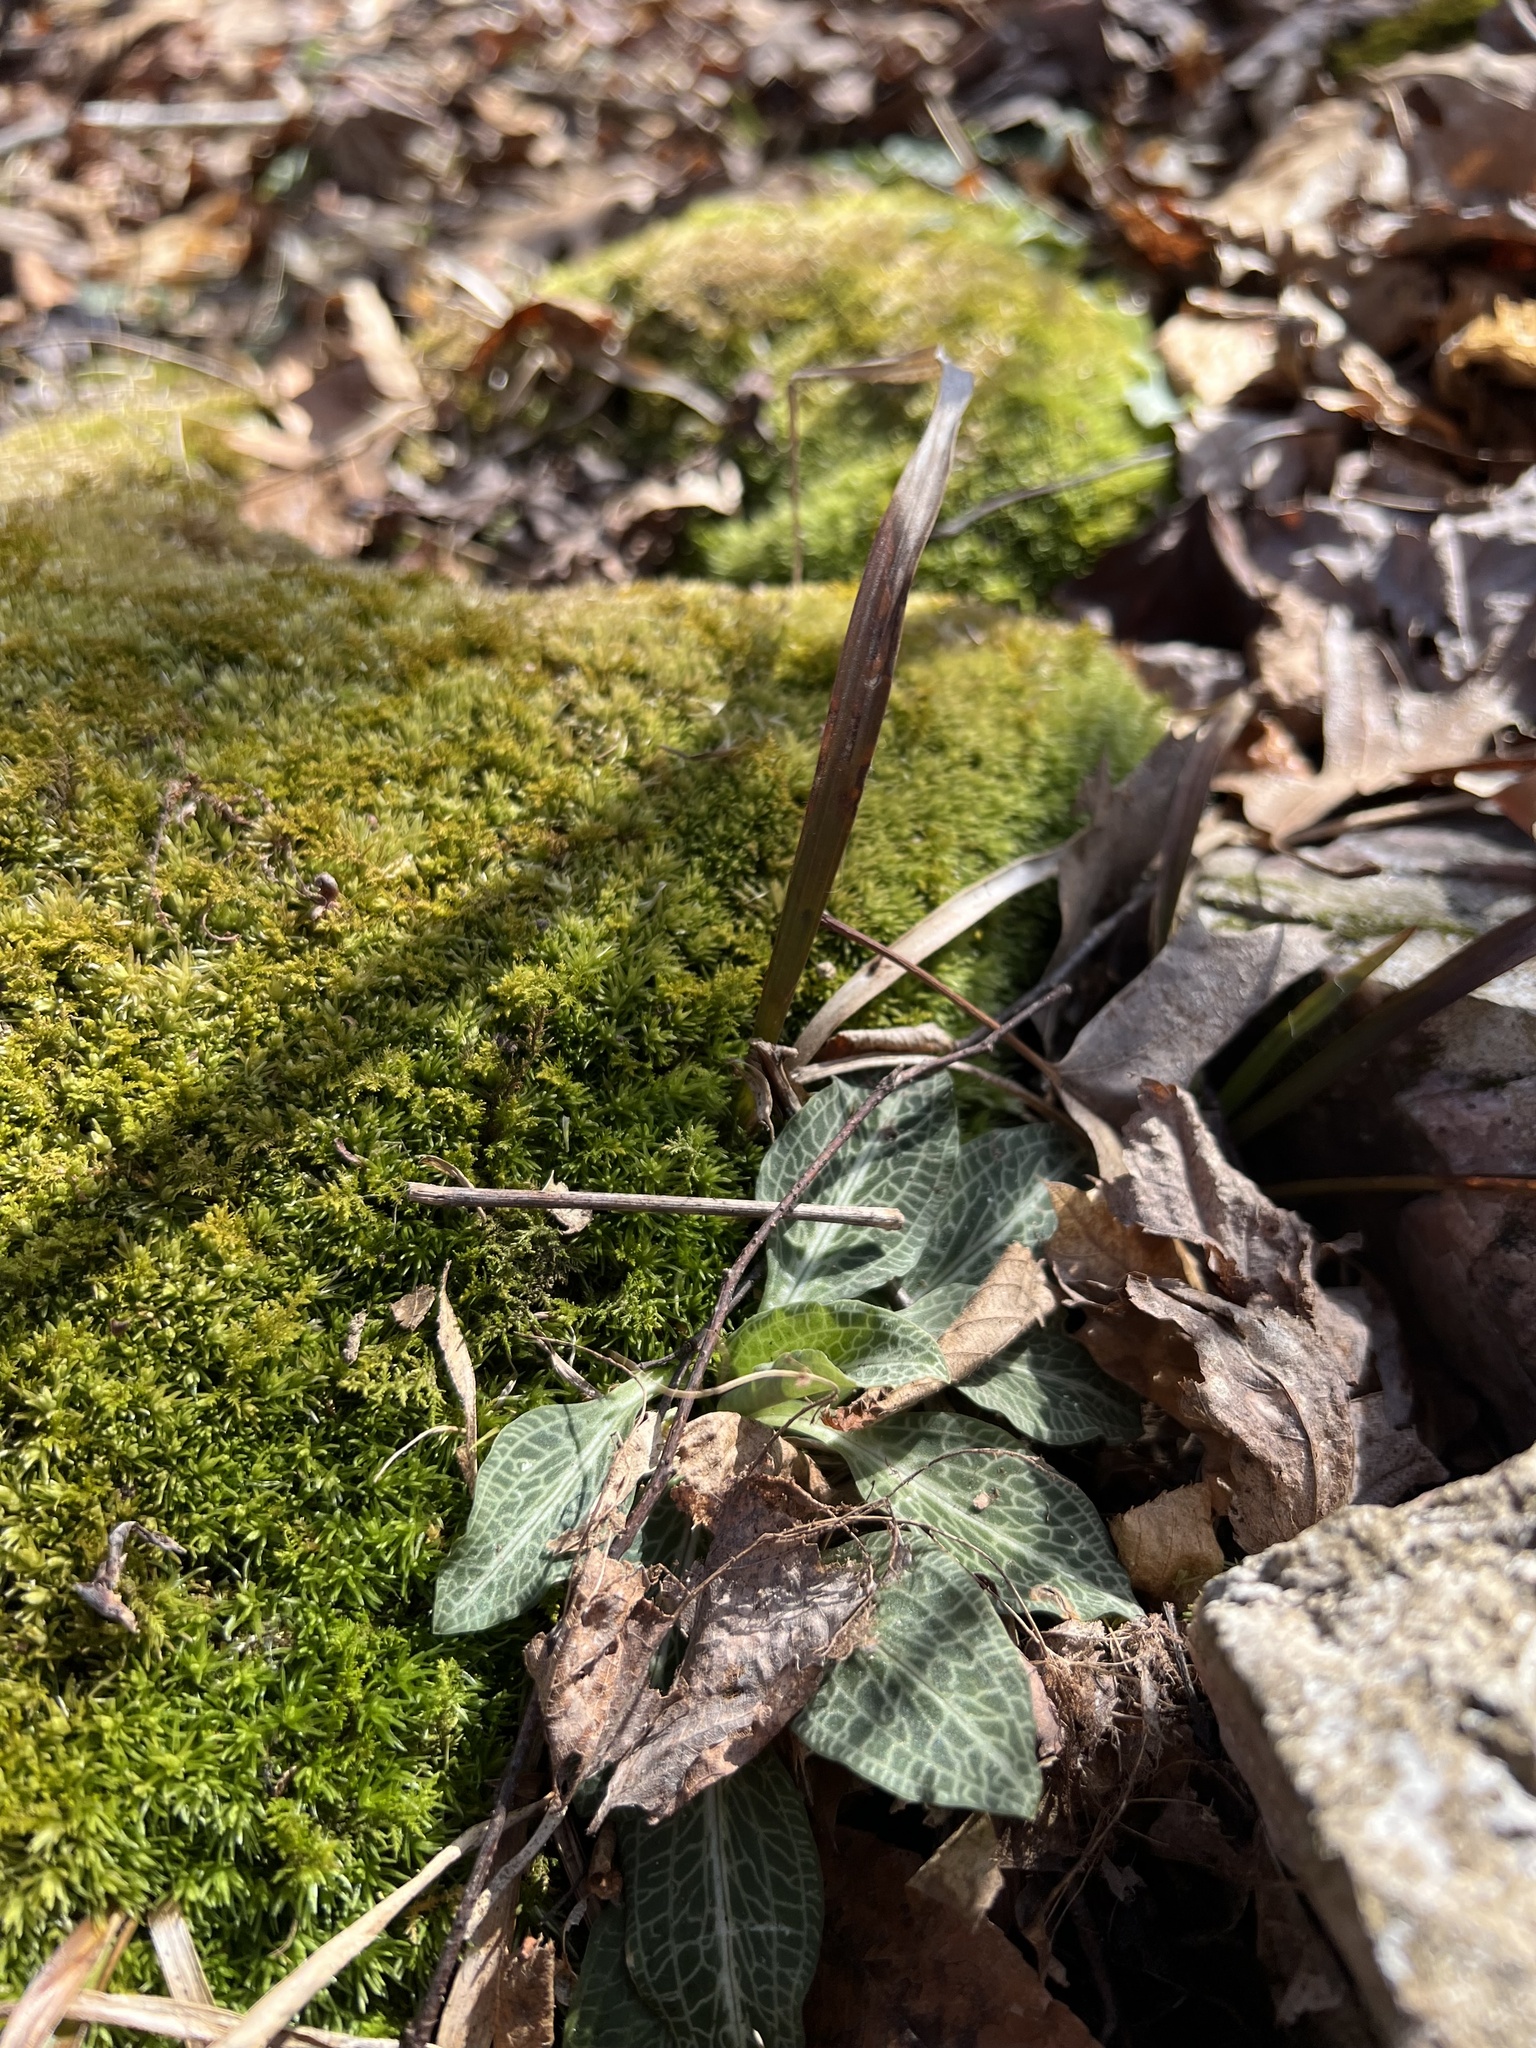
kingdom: Plantae
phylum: Tracheophyta
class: Liliopsida
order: Asparagales
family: Orchidaceae
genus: Goodyera
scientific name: Goodyera pubescens
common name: Downy rattlesnake-plantain
